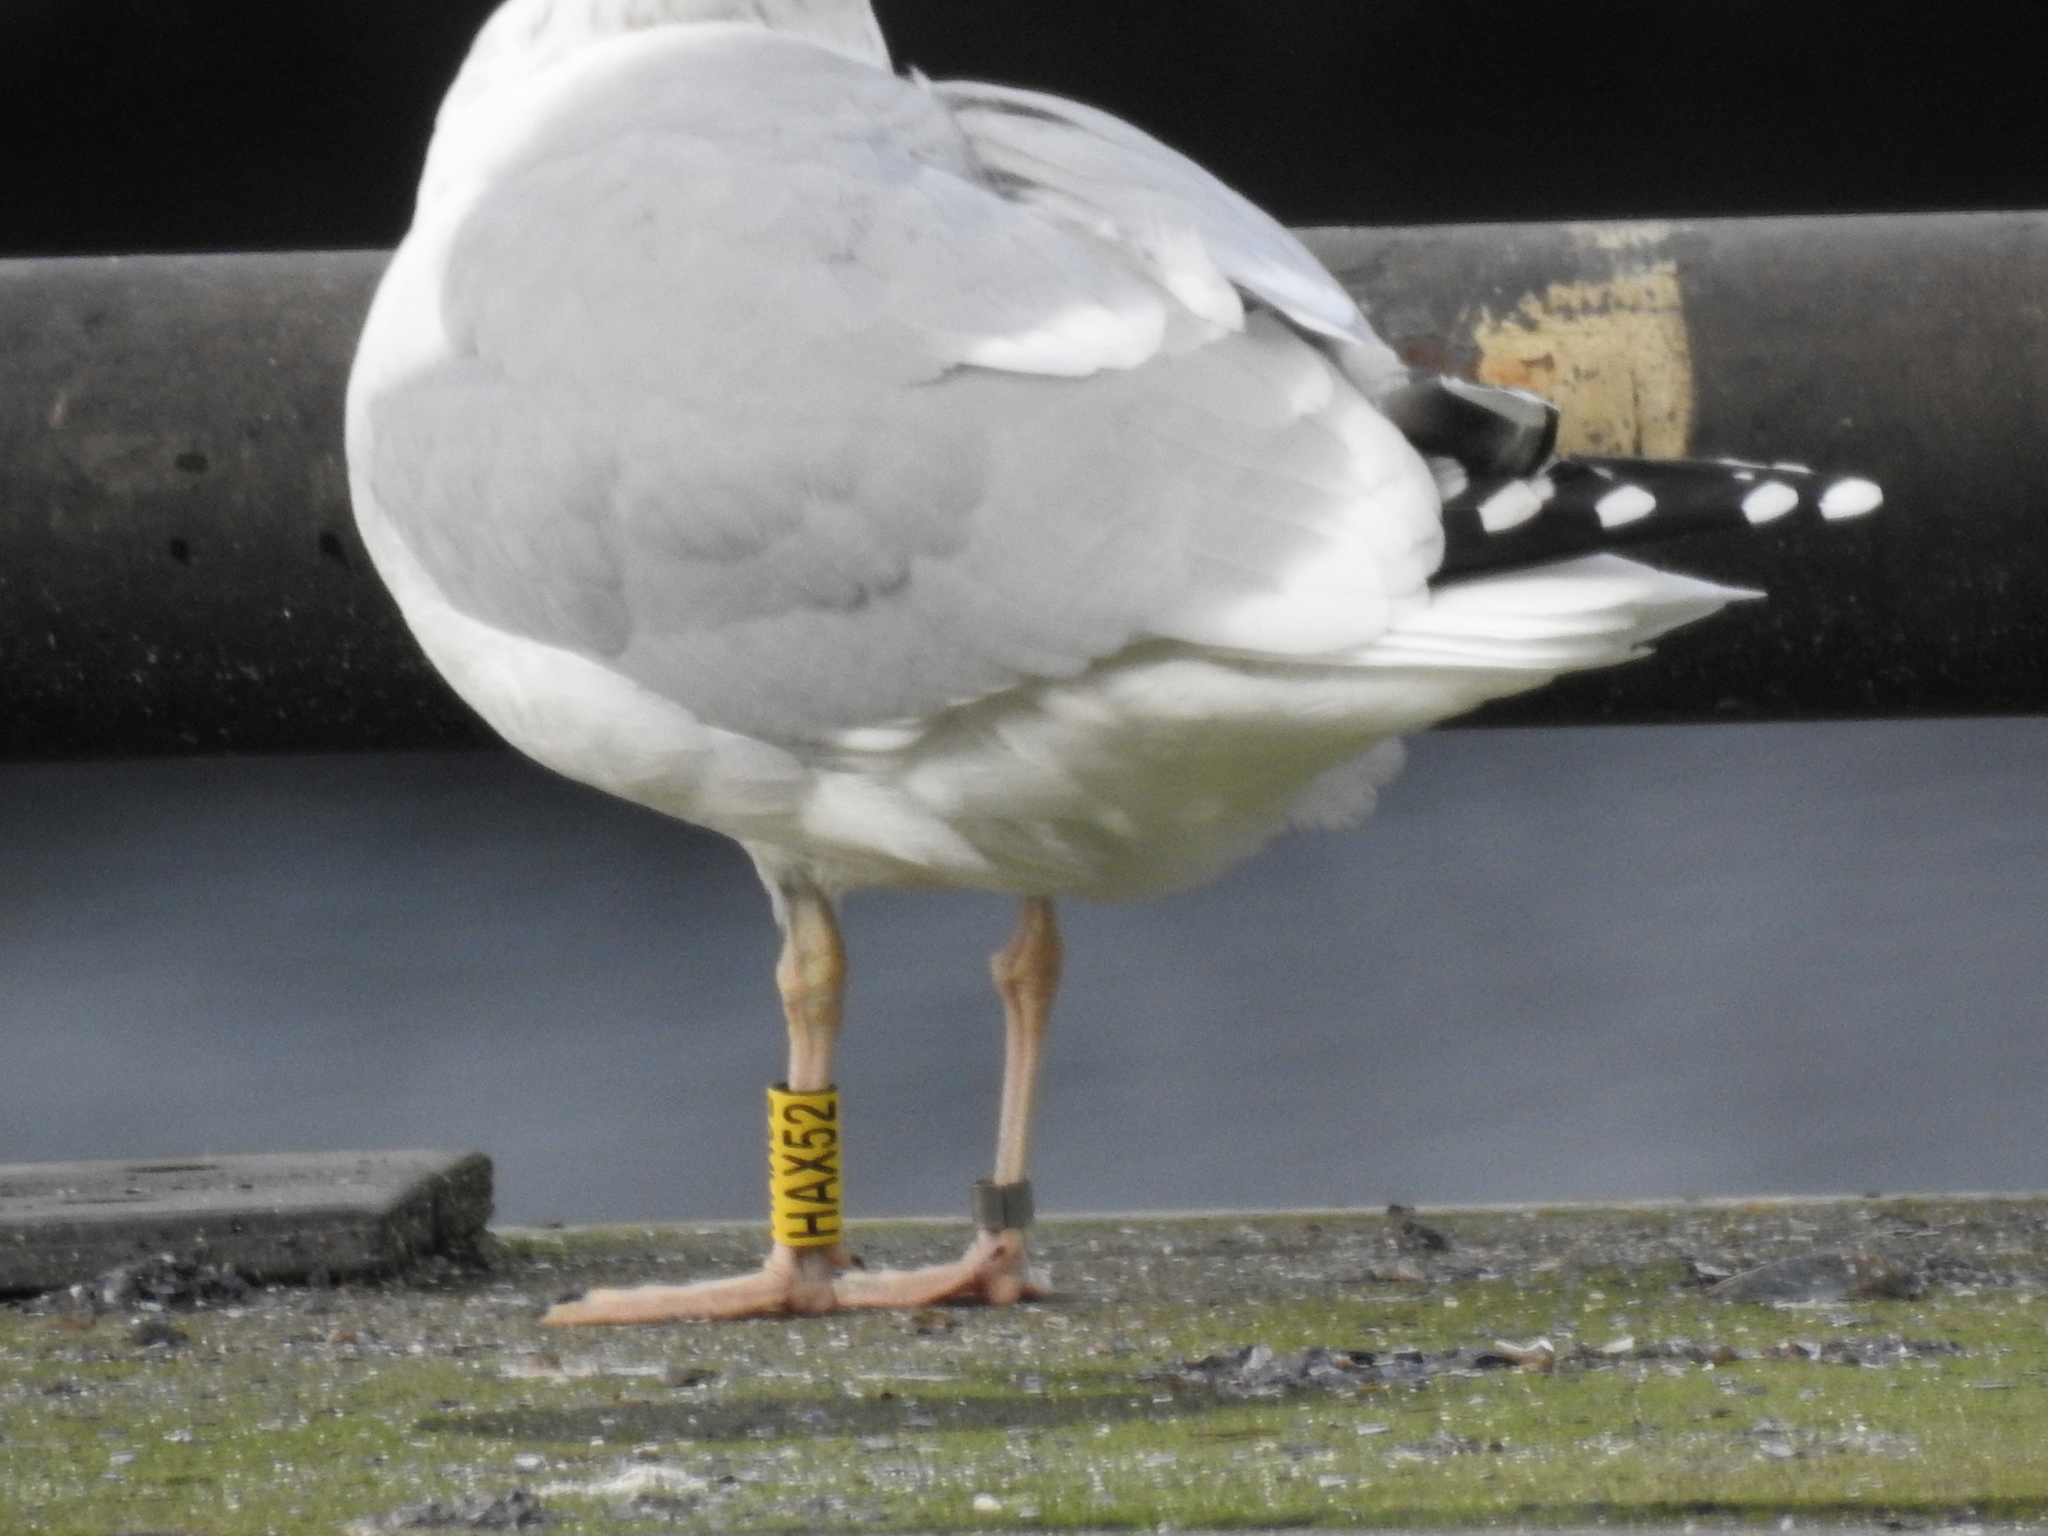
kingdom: Animalia
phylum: Chordata
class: Aves
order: Charadriiformes
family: Laridae
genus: Larus
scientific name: Larus argentatus
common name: Herring gull
